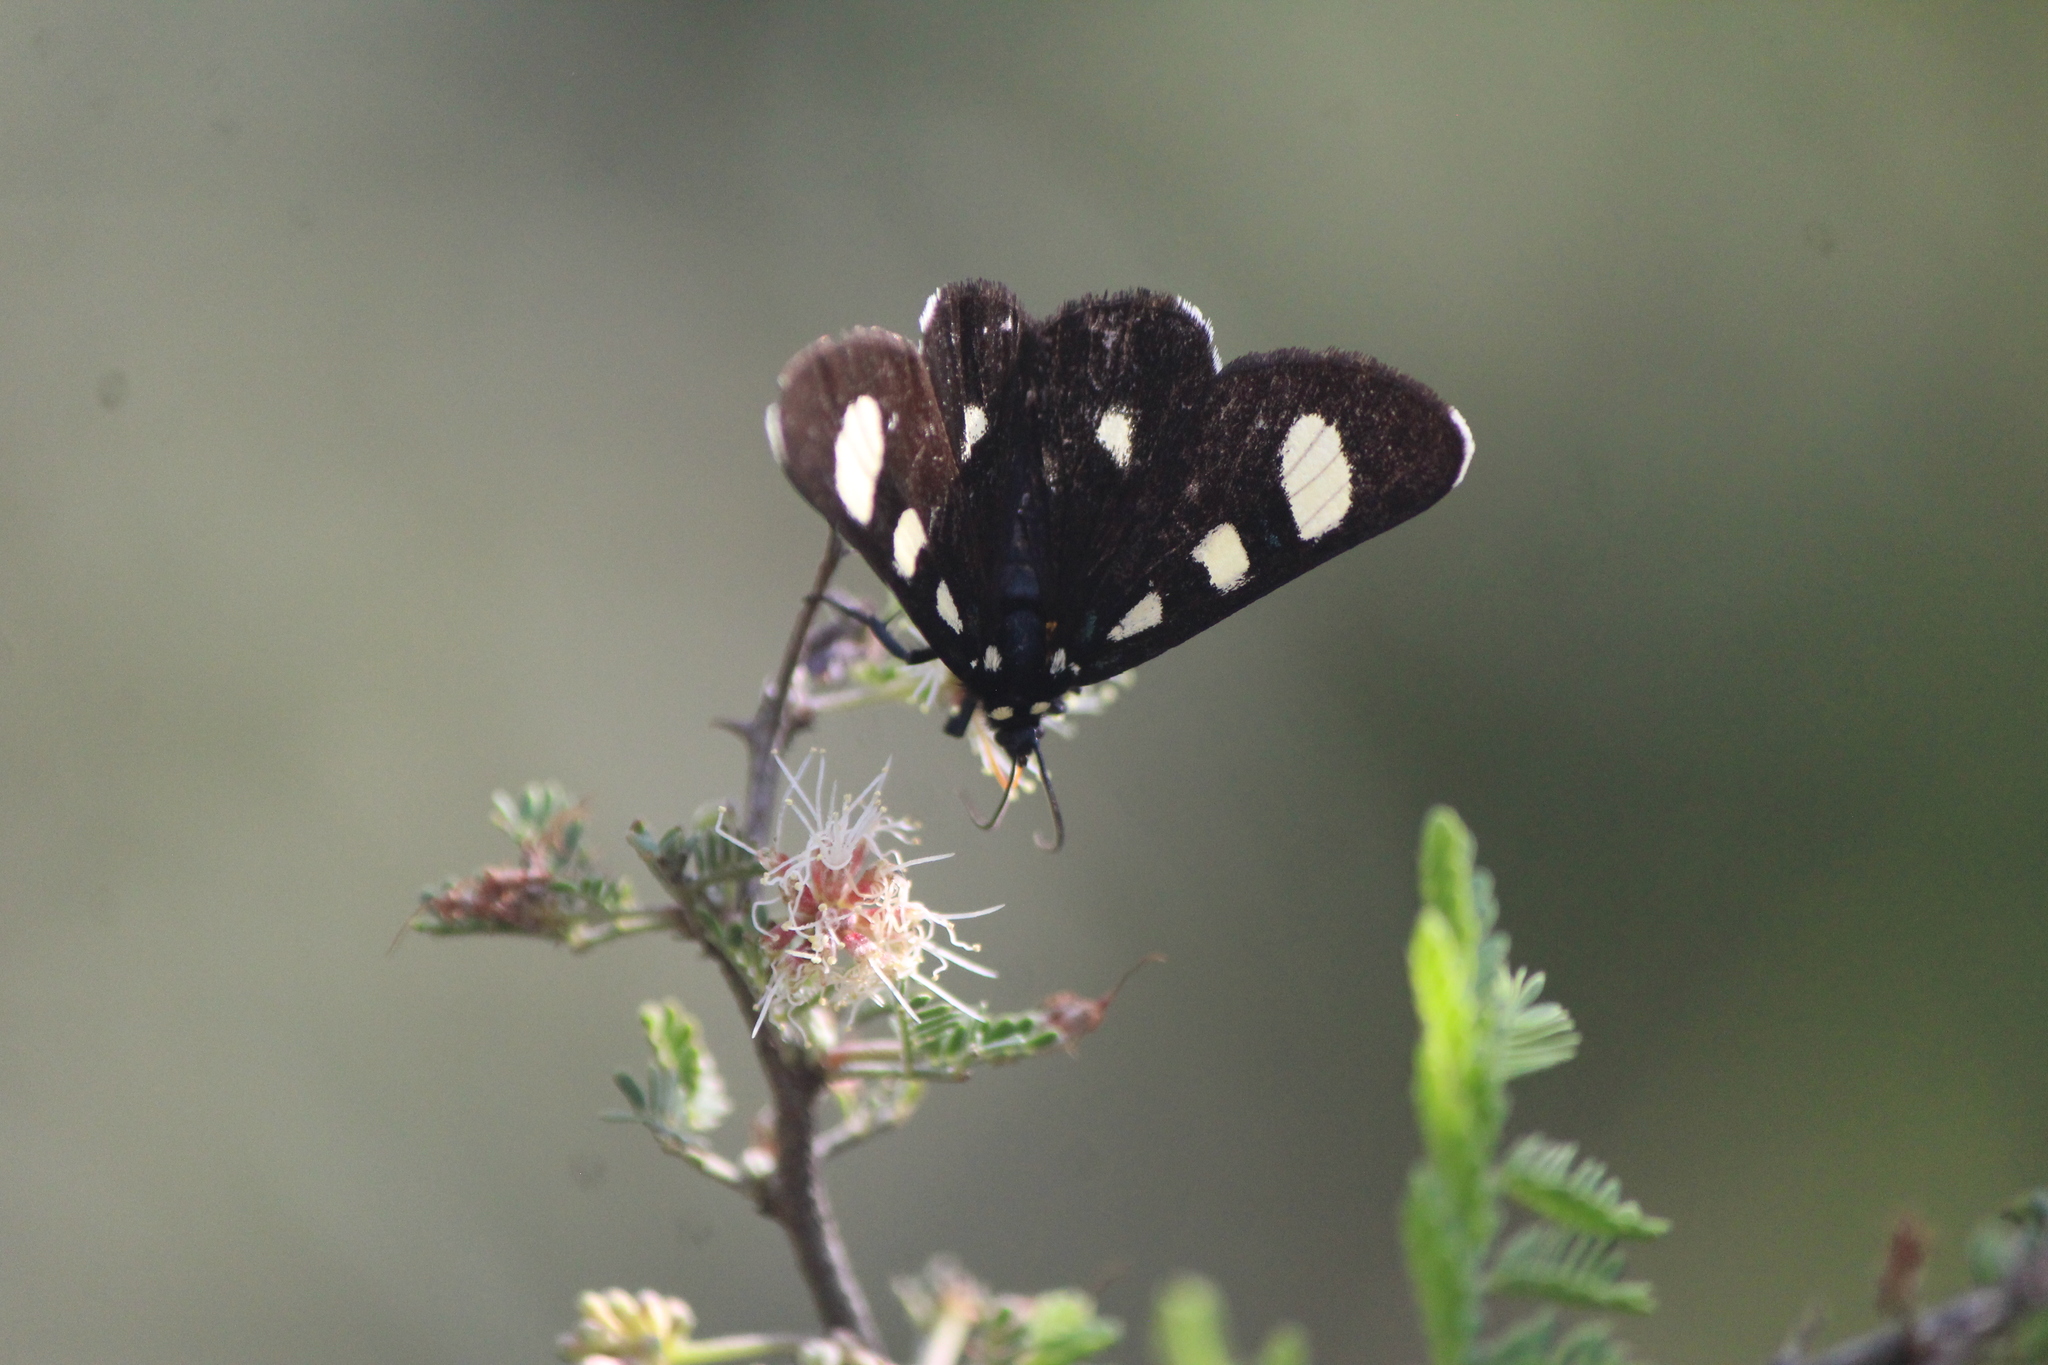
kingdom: Animalia
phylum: Arthropoda
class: Insecta
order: Lepidoptera
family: Noctuidae
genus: Alypiodes
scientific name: Alypiodes bimaculata
